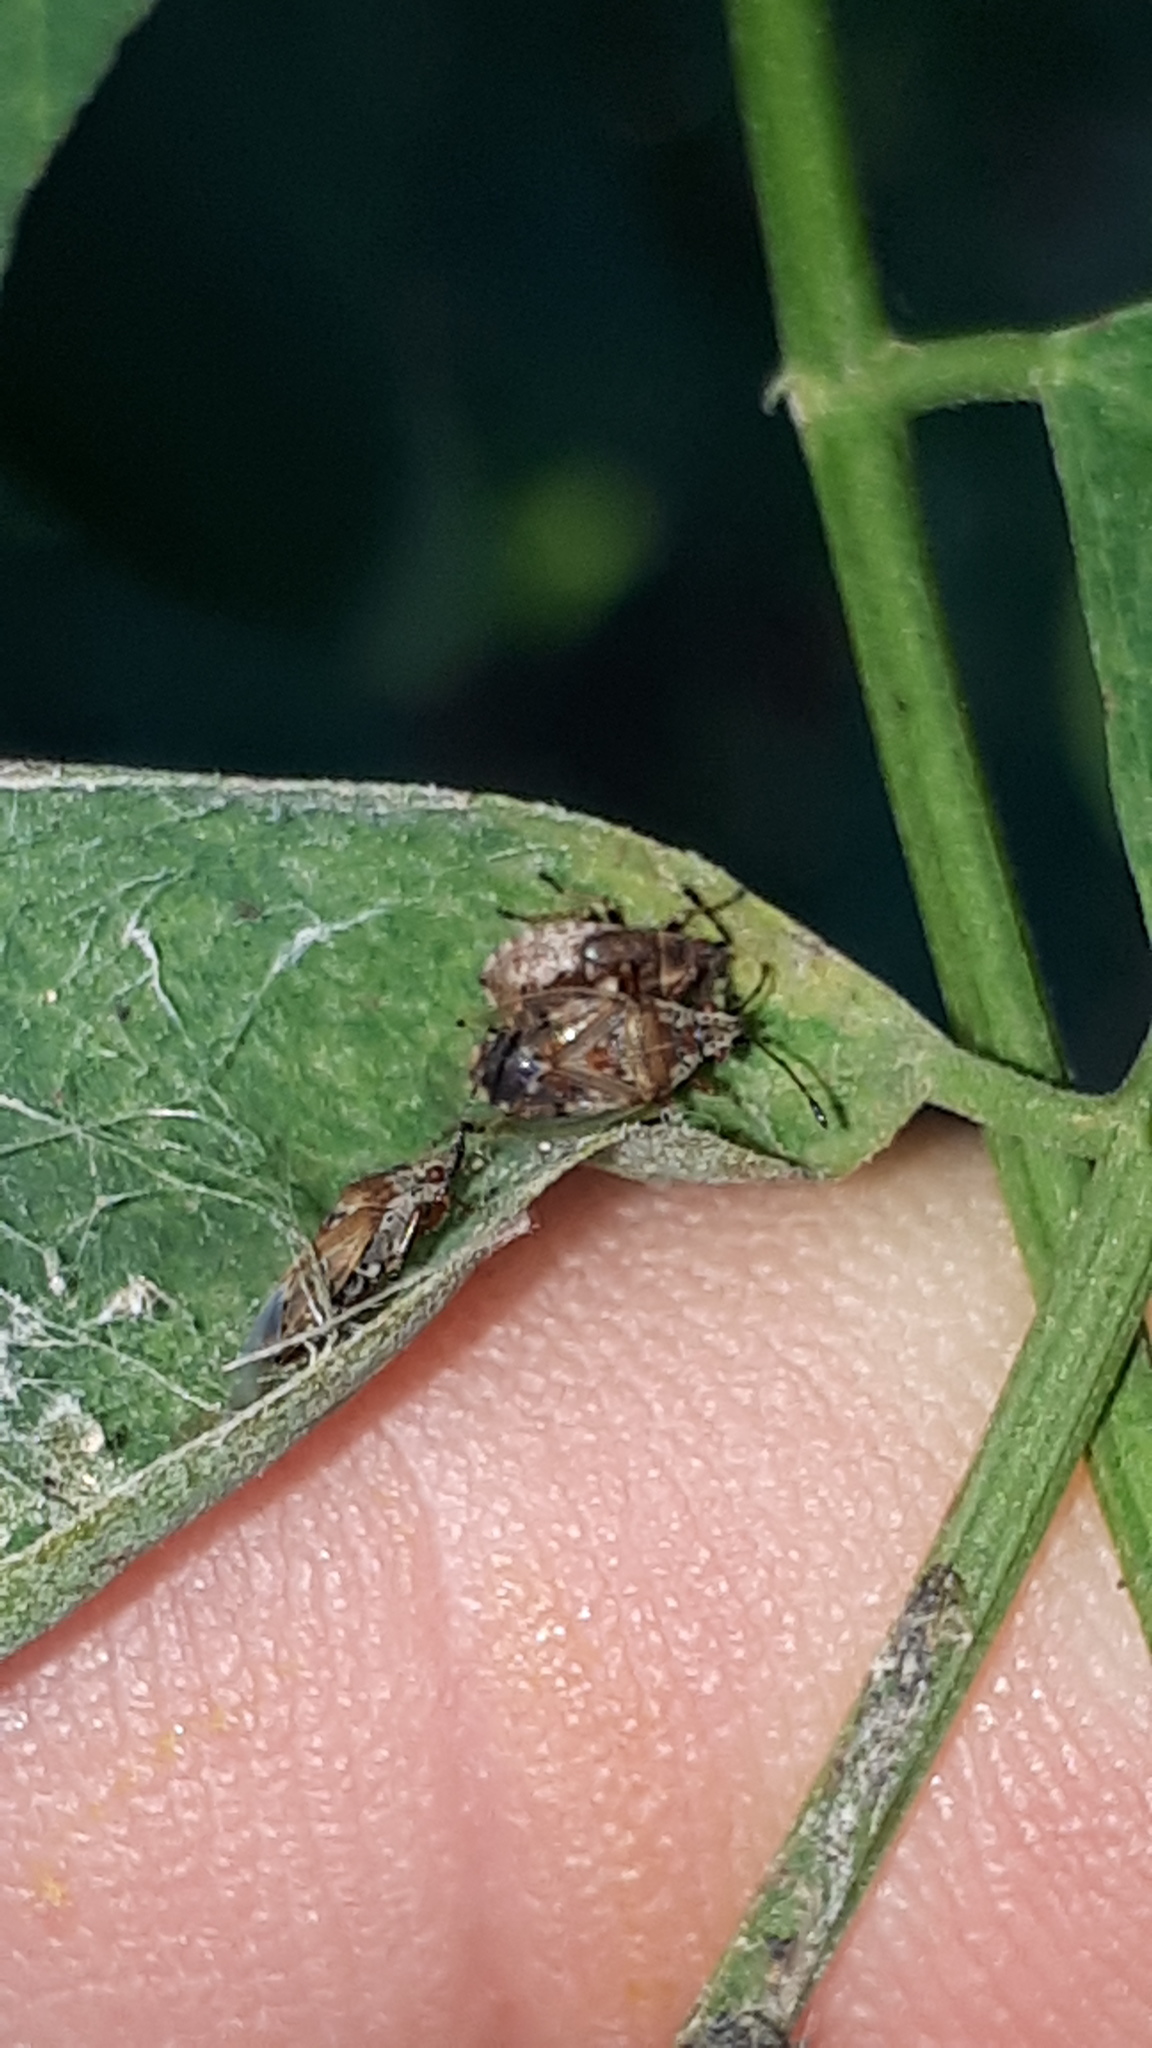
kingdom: Animalia
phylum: Arthropoda
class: Insecta
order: Hemiptera
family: Lygaeidae
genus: Kleidocerys
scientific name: Kleidocerys resedae
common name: Birch catkin bug
